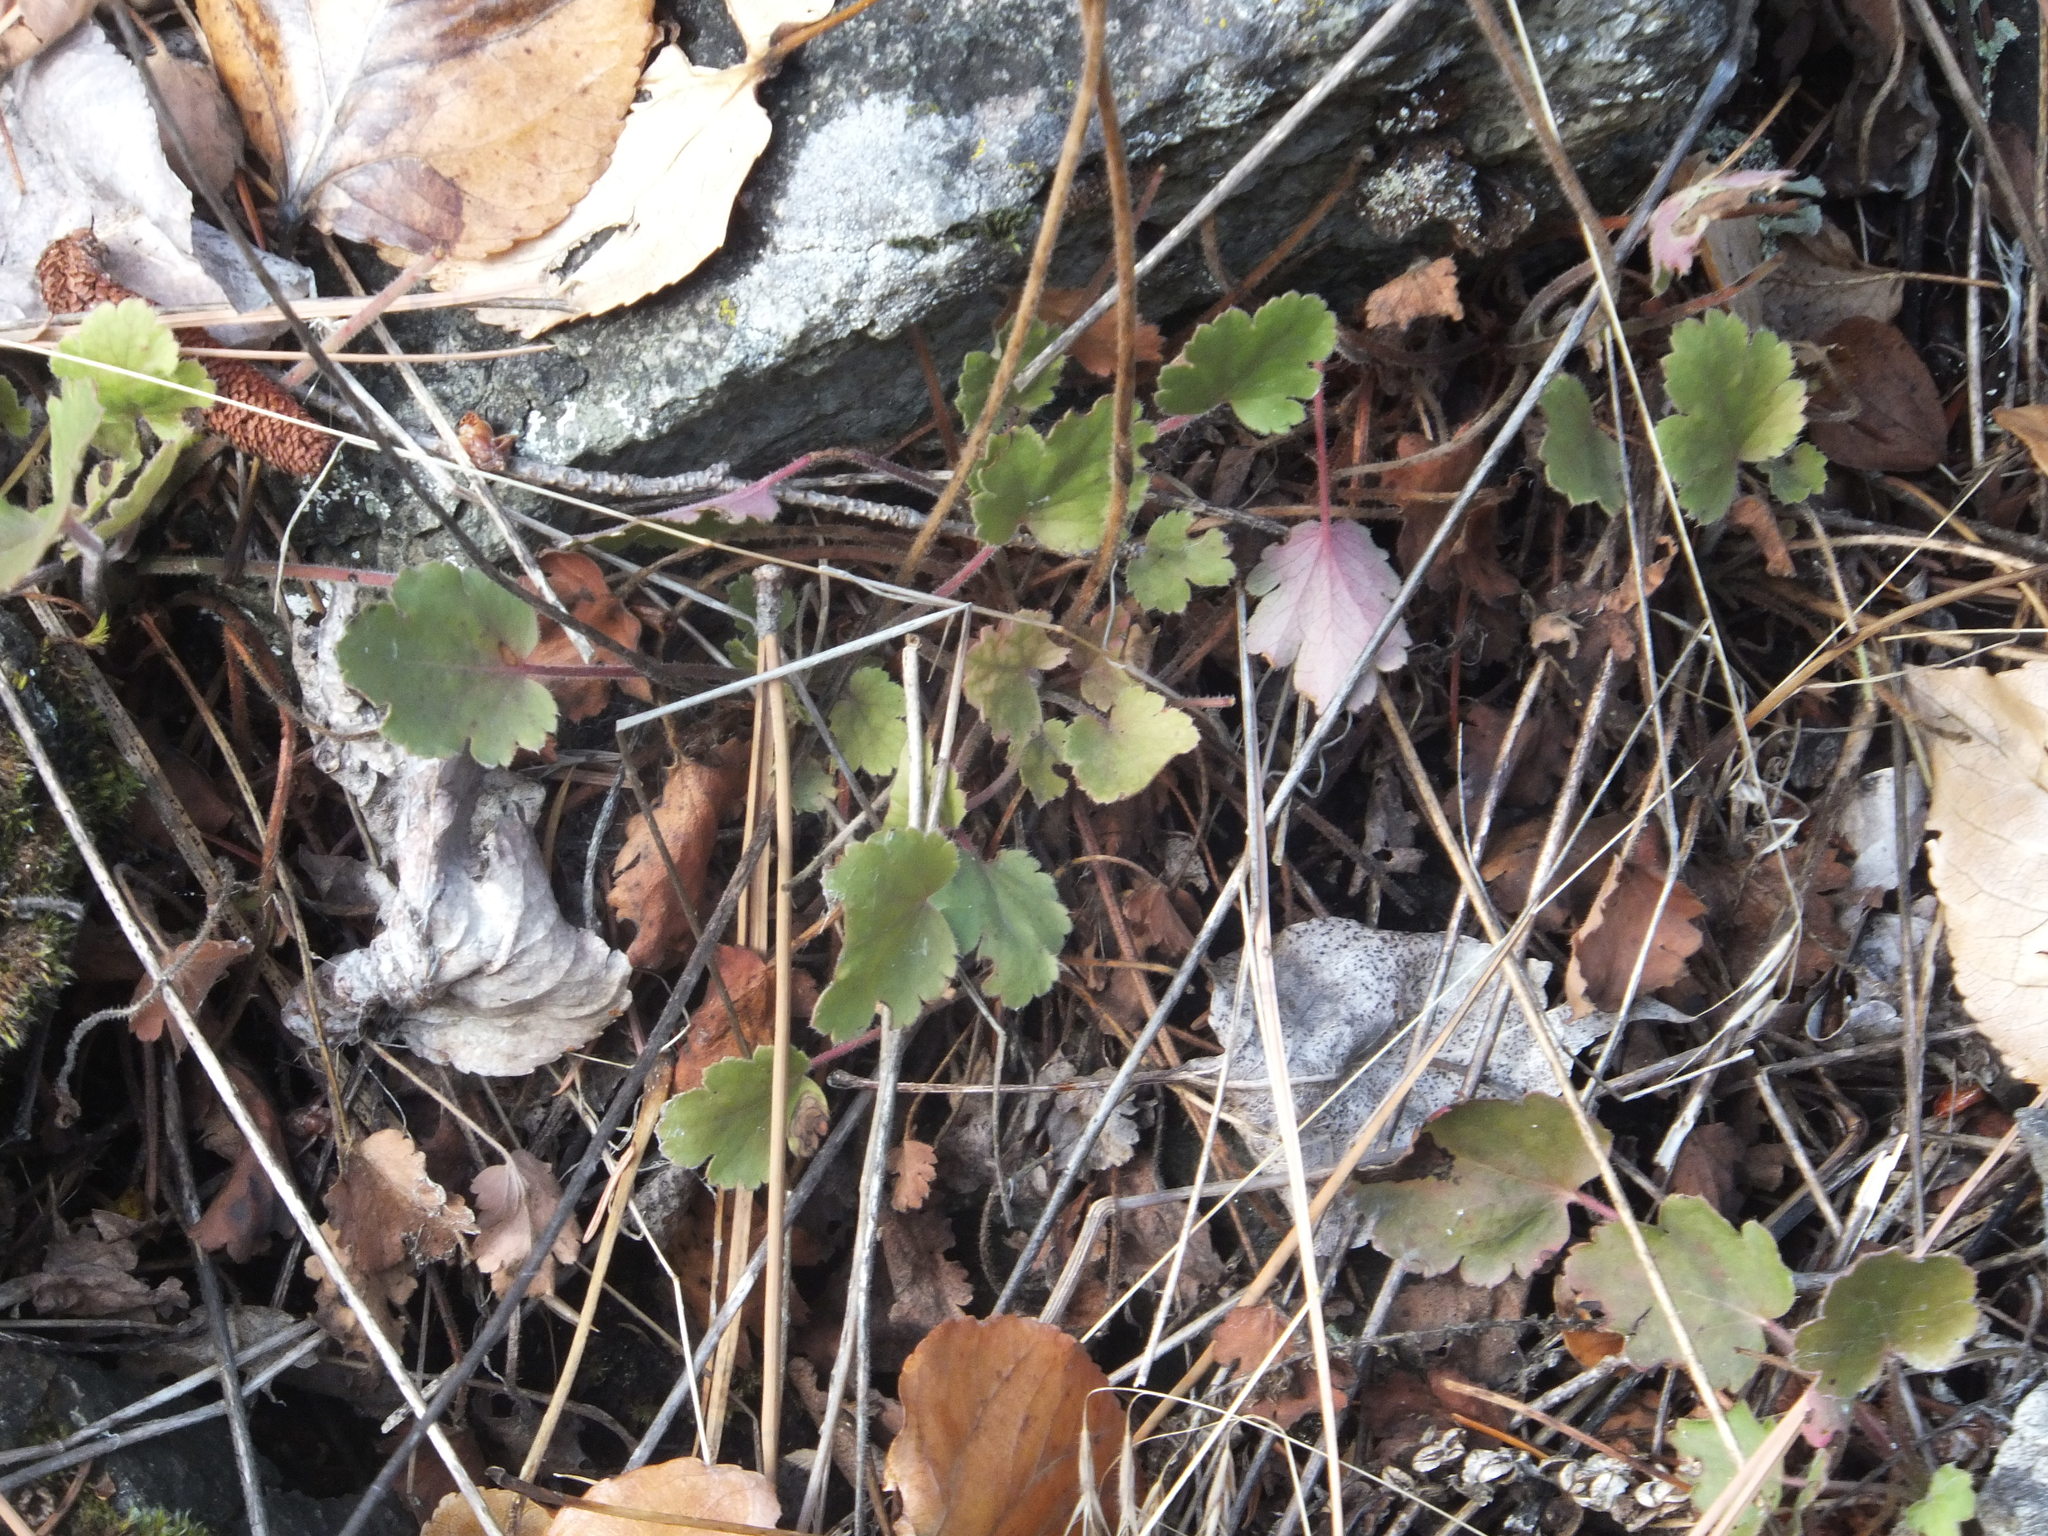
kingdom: Plantae
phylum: Tracheophyta
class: Magnoliopsida
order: Saxifragales
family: Saxifragaceae
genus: Heuchera
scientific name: Heuchera cylindrica
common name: Mat alumroot
